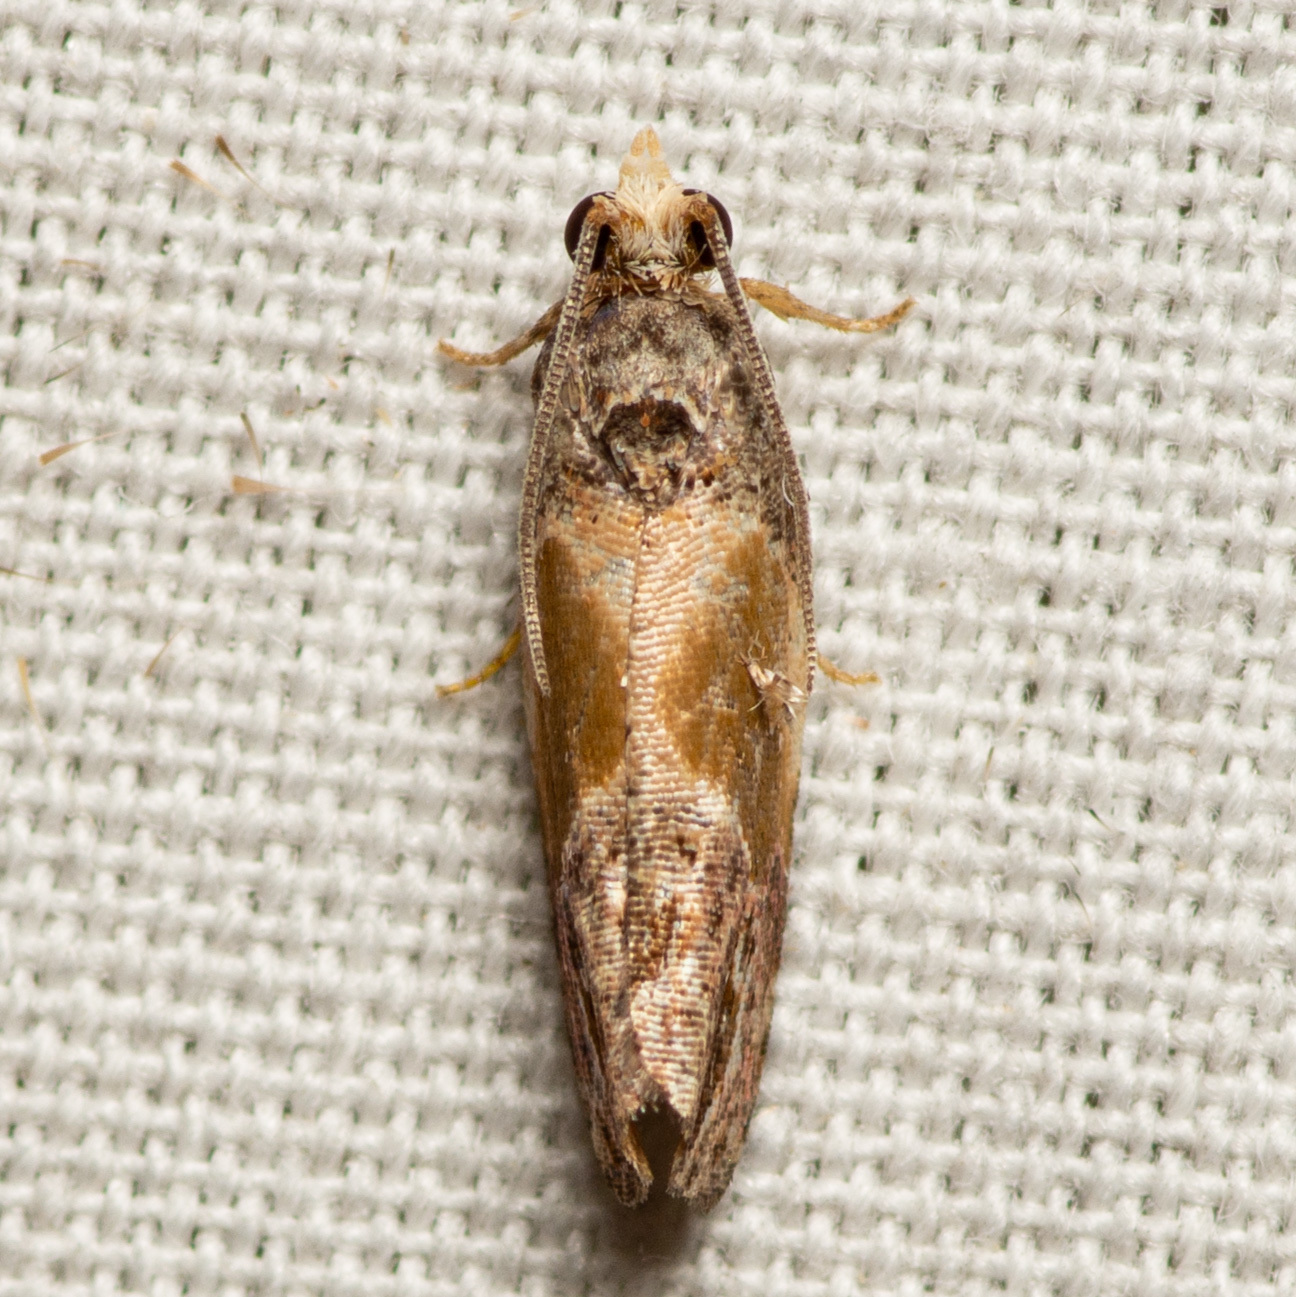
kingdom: Animalia
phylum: Arthropoda
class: Insecta
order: Lepidoptera
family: Tortricidae
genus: Eumarozia
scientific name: Eumarozia malachitana
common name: Sculptured moth
